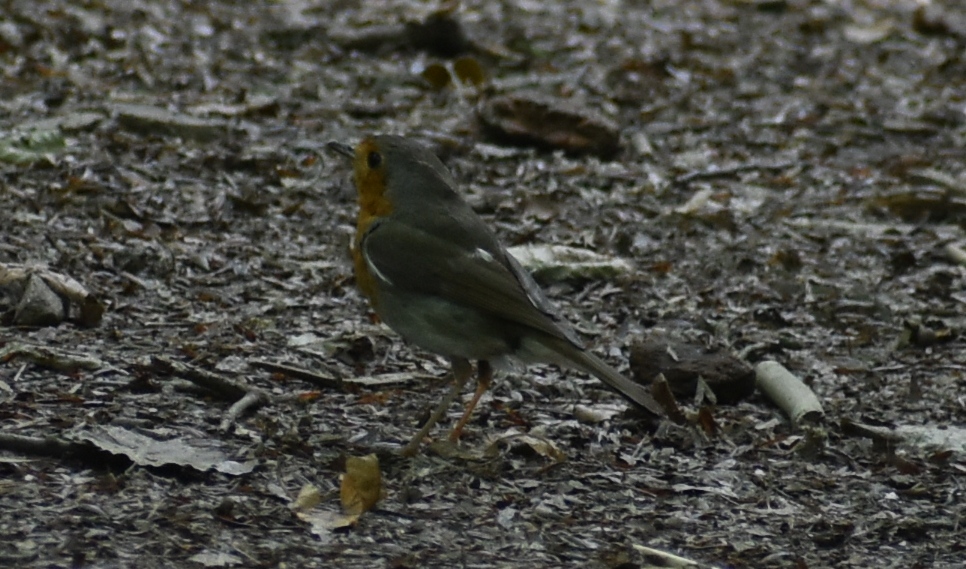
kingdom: Animalia
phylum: Chordata
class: Aves
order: Passeriformes
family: Muscicapidae
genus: Erithacus
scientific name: Erithacus rubecula
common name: European robin
